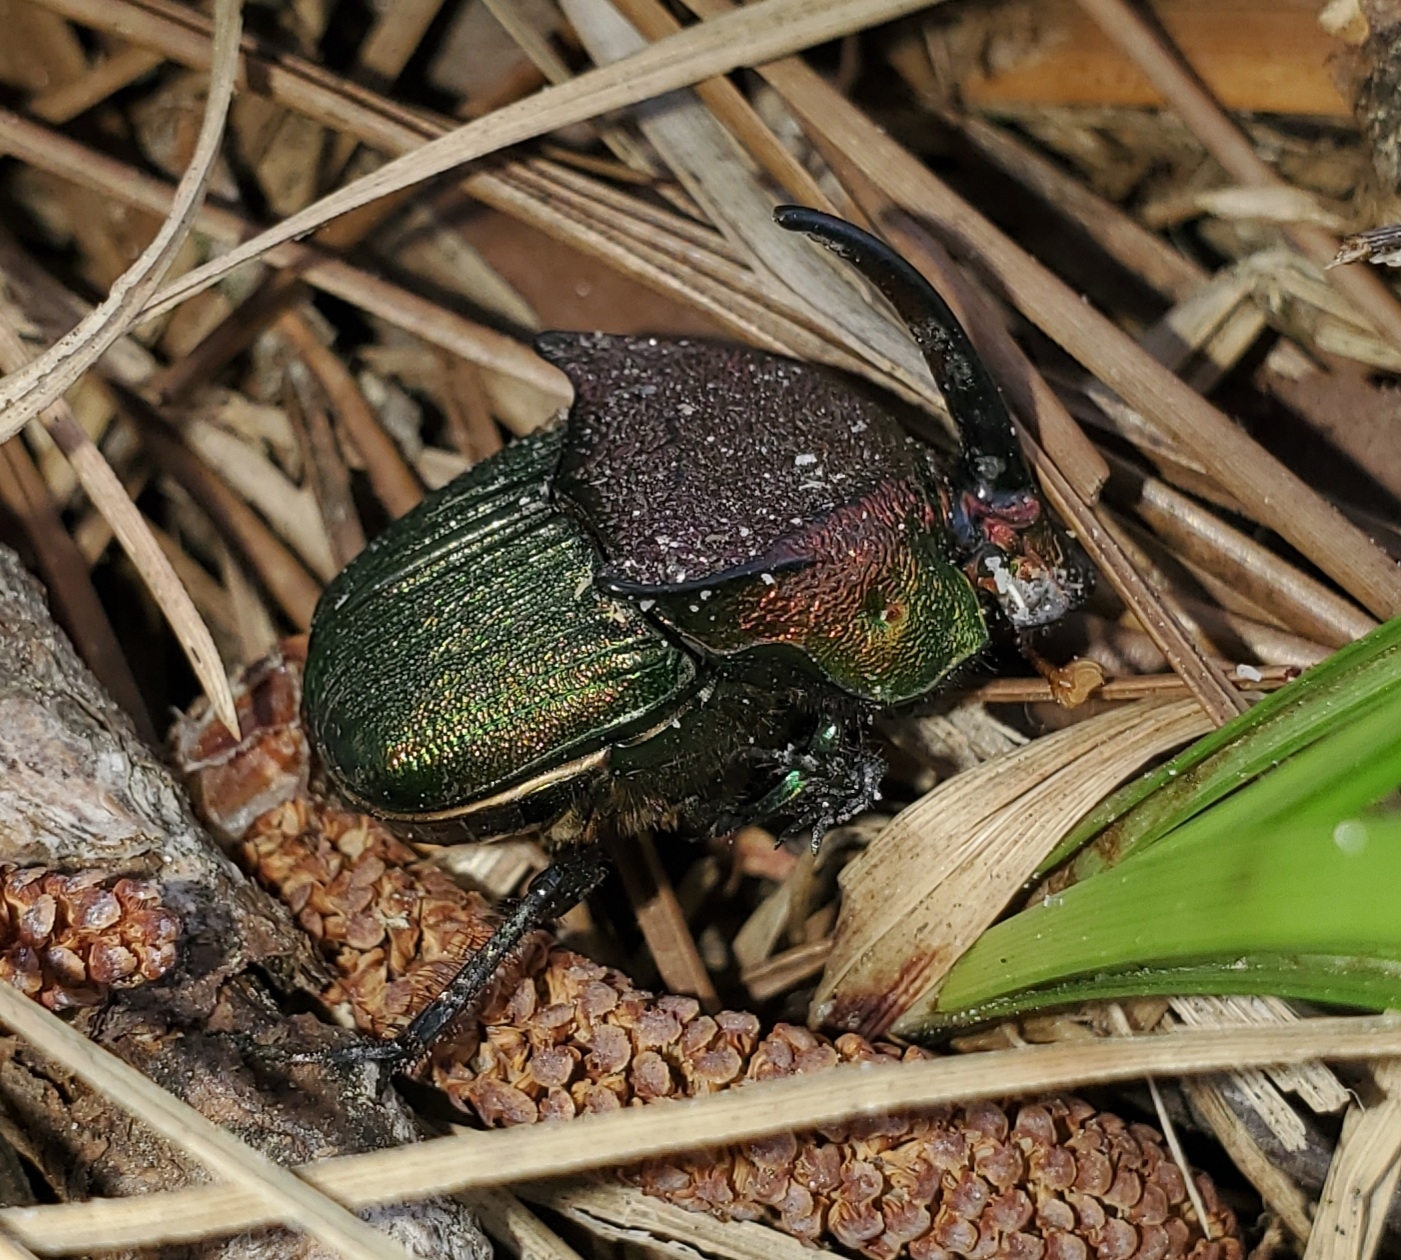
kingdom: Animalia
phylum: Arthropoda
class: Insecta
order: Coleoptera
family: Scarabaeidae
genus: Phanaeus
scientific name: Phanaeus vindex
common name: Rainbow scarab
